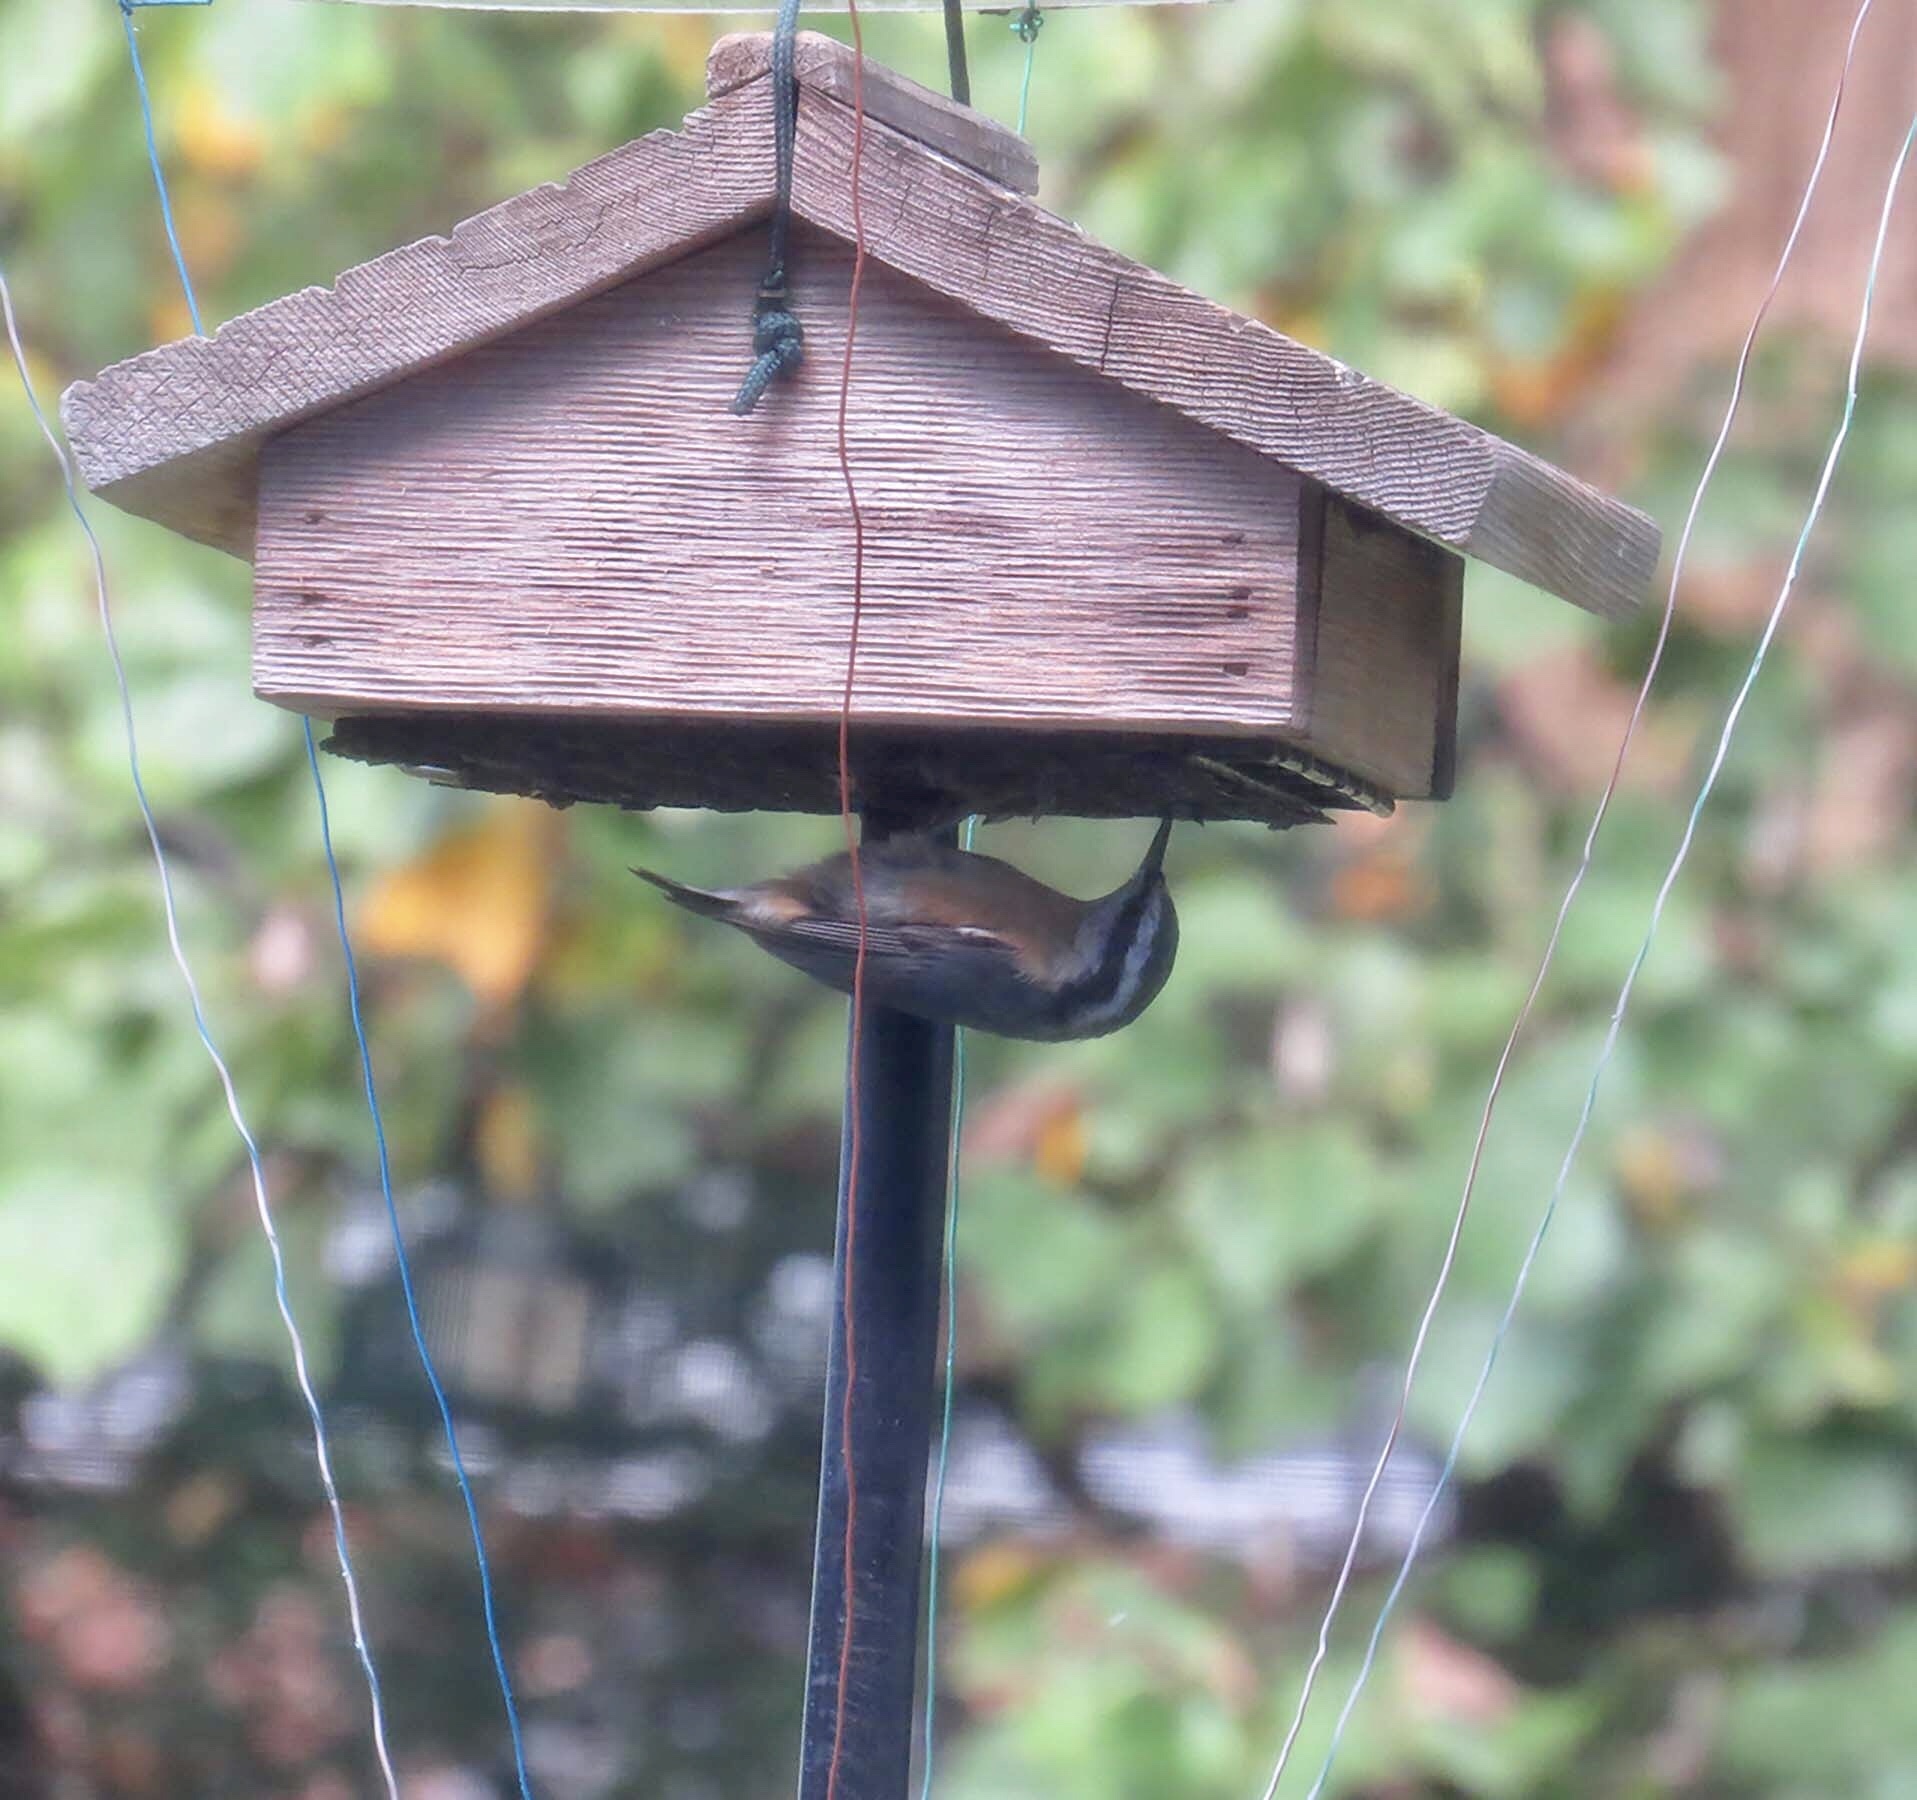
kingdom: Animalia
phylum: Chordata
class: Aves
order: Passeriformes
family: Sittidae
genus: Sitta
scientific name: Sitta canadensis
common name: Red-breasted nuthatch
